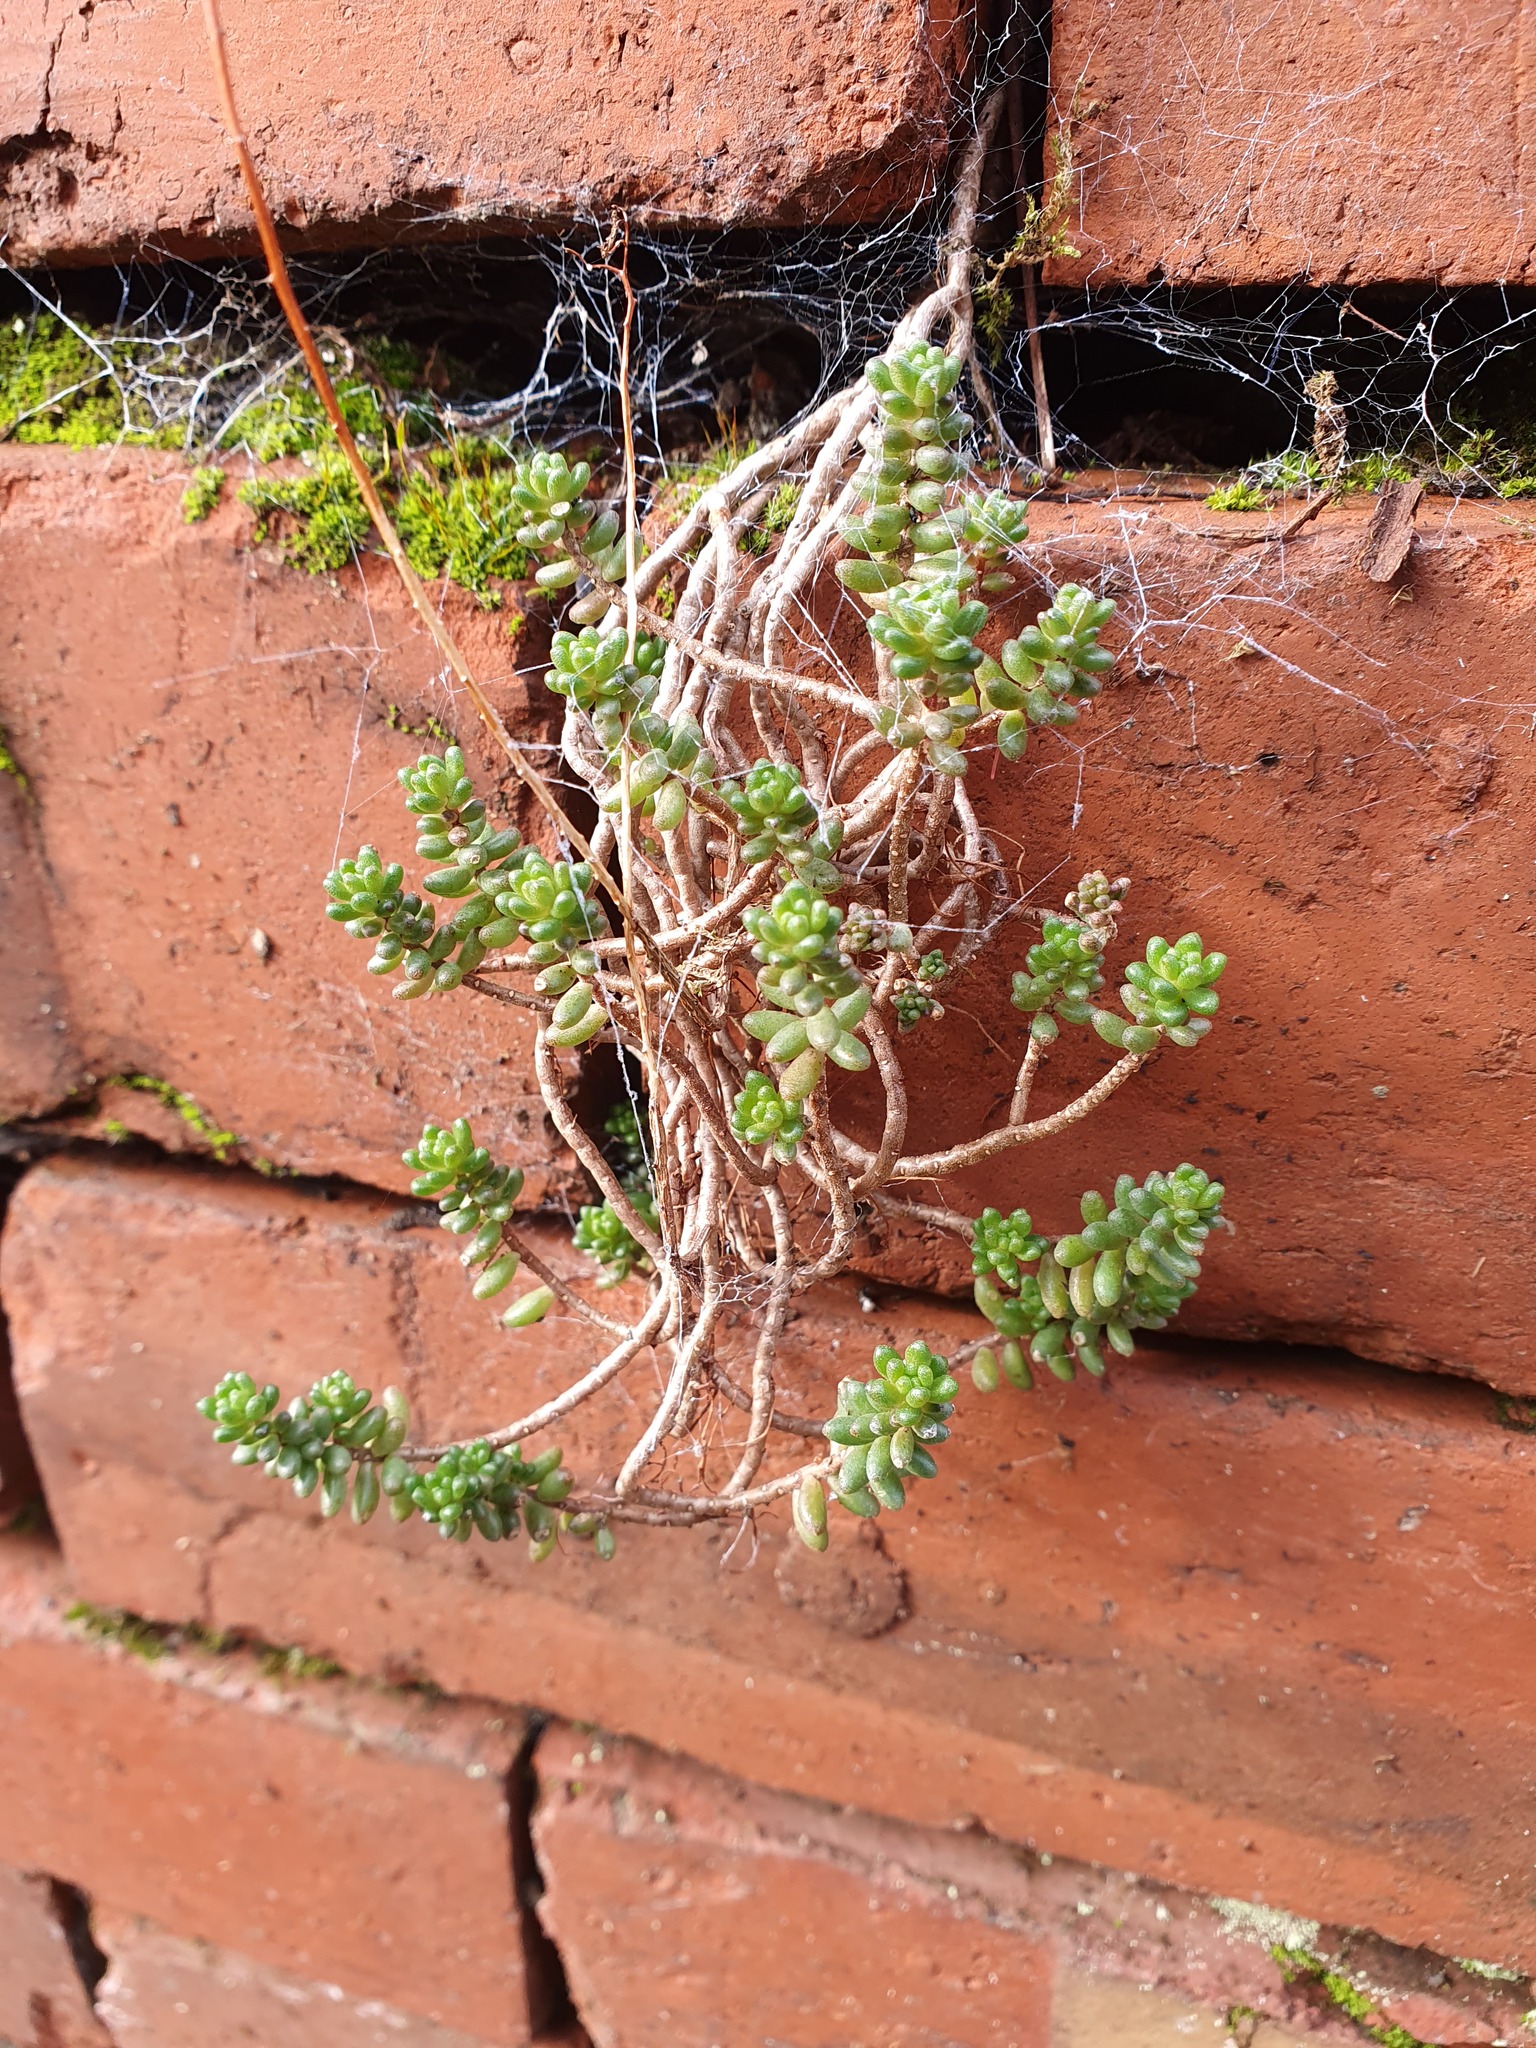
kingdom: Plantae
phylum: Tracheophyta
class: Magnoliopsida
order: Saxifragales
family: Crassulaceae
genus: Sedum
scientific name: Sedum album
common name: White stonecrop
